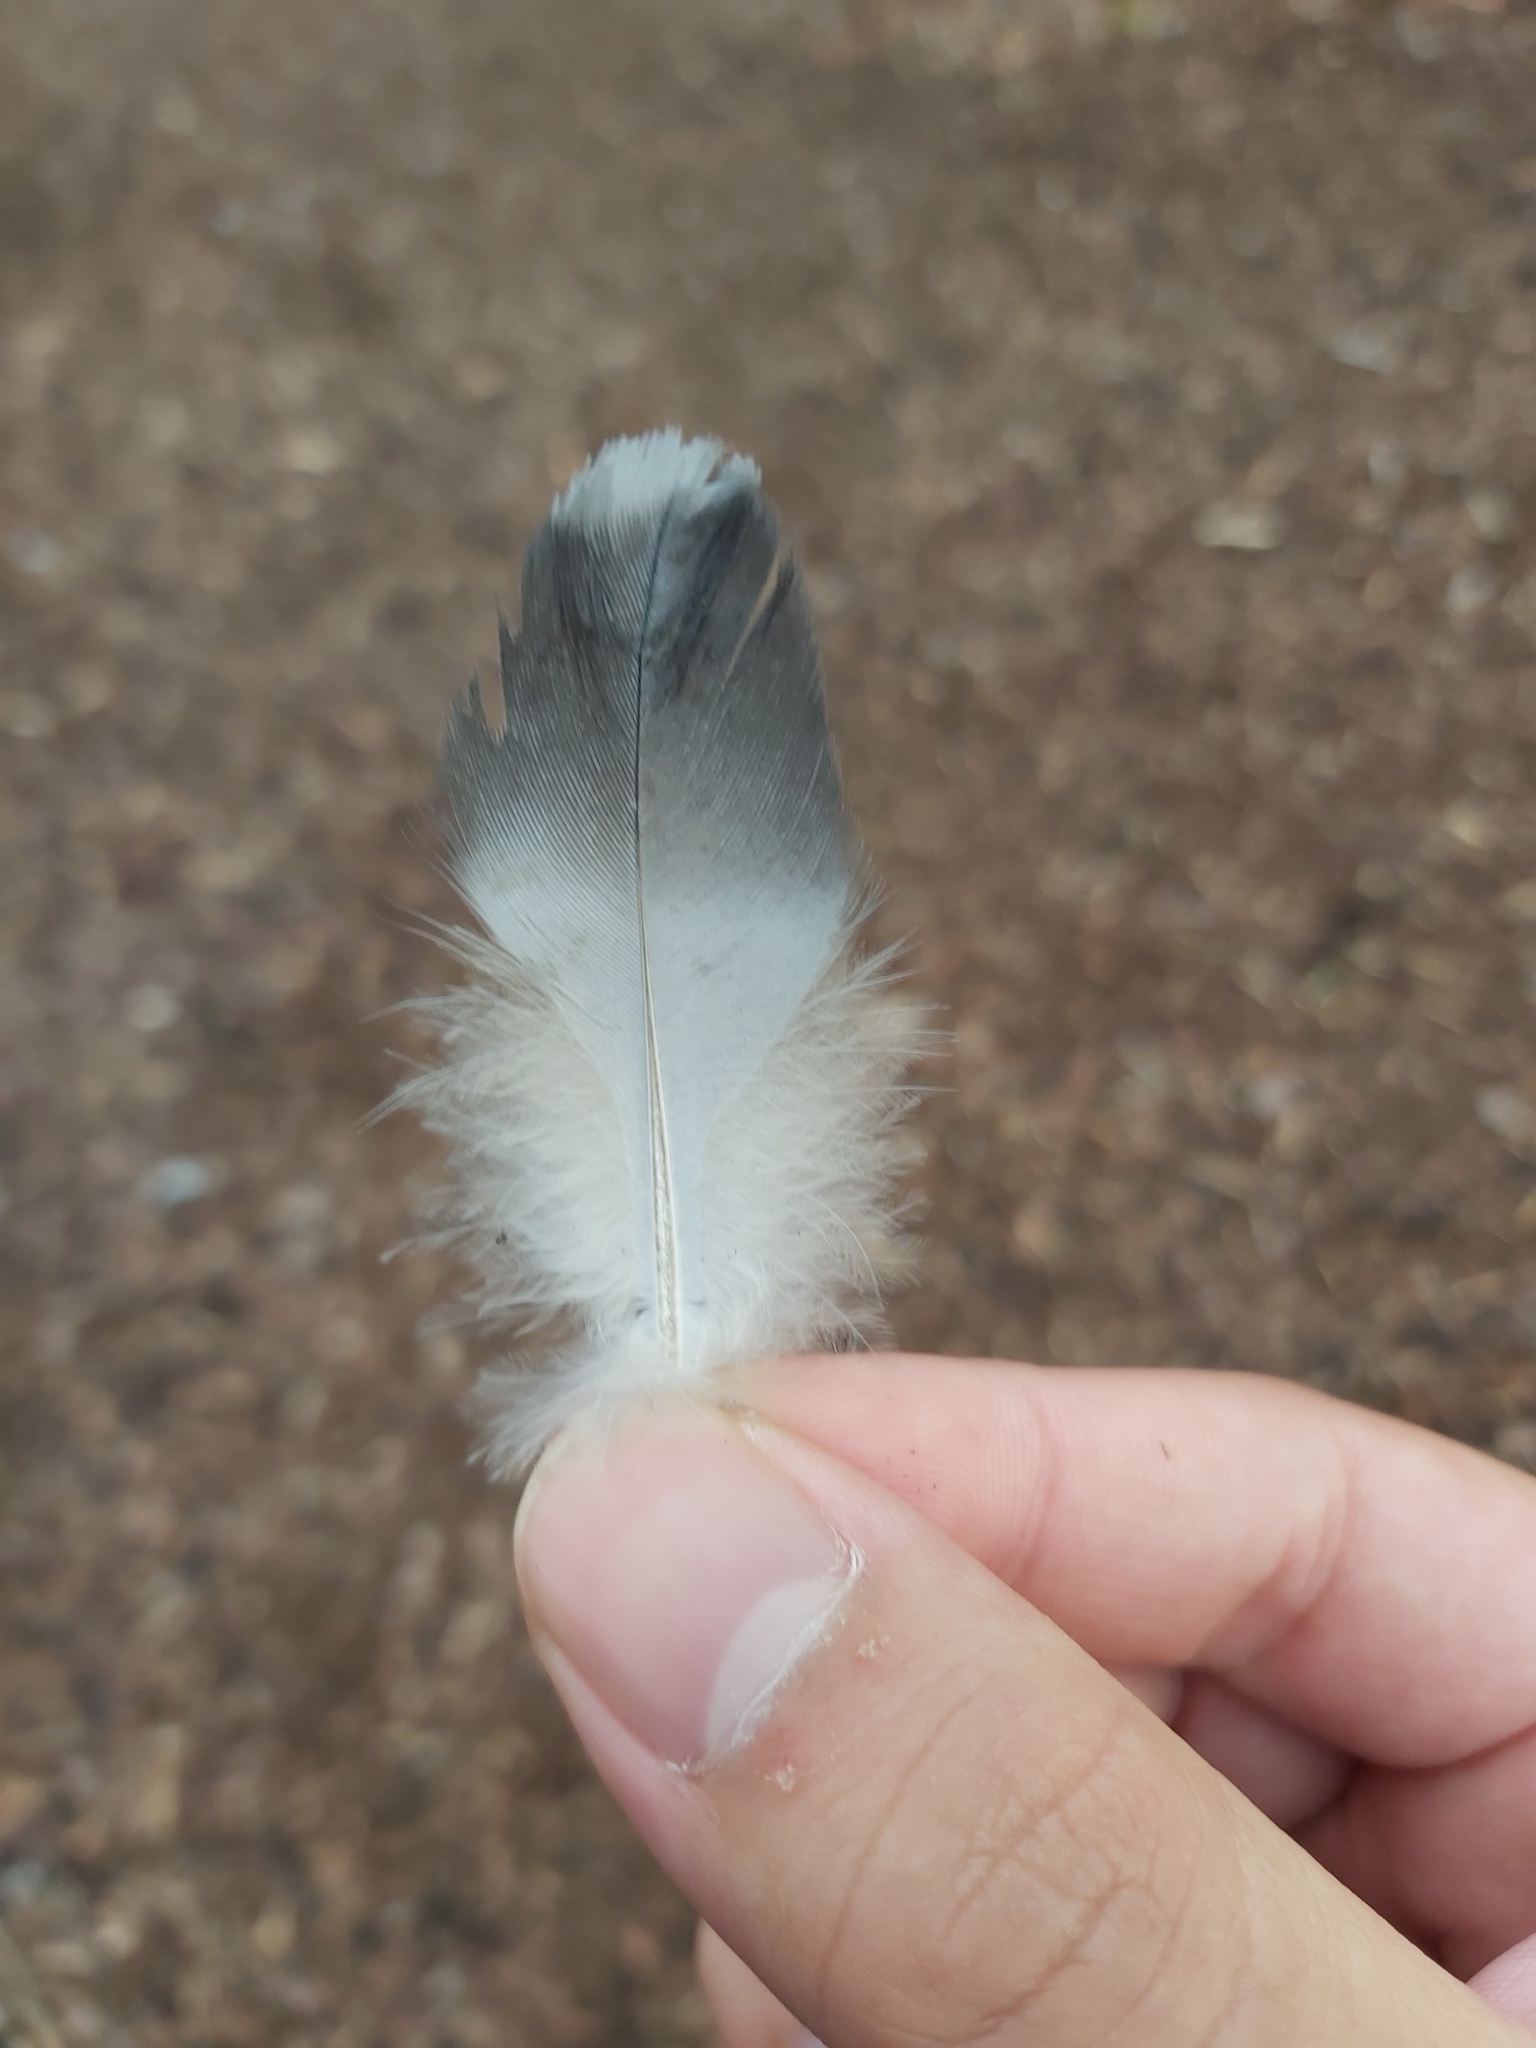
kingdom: Animalia
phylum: Chordata
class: Aves
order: Columbiformes
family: Columbidae
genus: Columba
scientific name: Columba livia
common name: Rock pigeon
